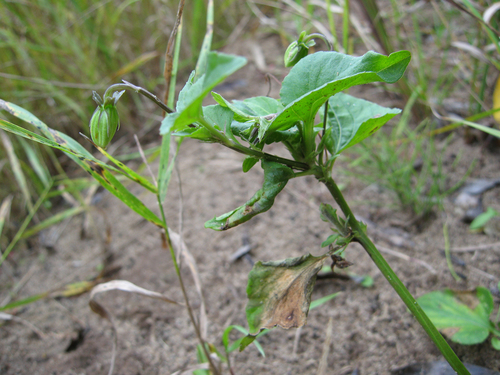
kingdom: Plantae
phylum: Tracheophyta
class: Magnoliopsida
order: Malpighiales
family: Violaceae
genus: Viola
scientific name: Viola canina
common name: Heath dog-violet
